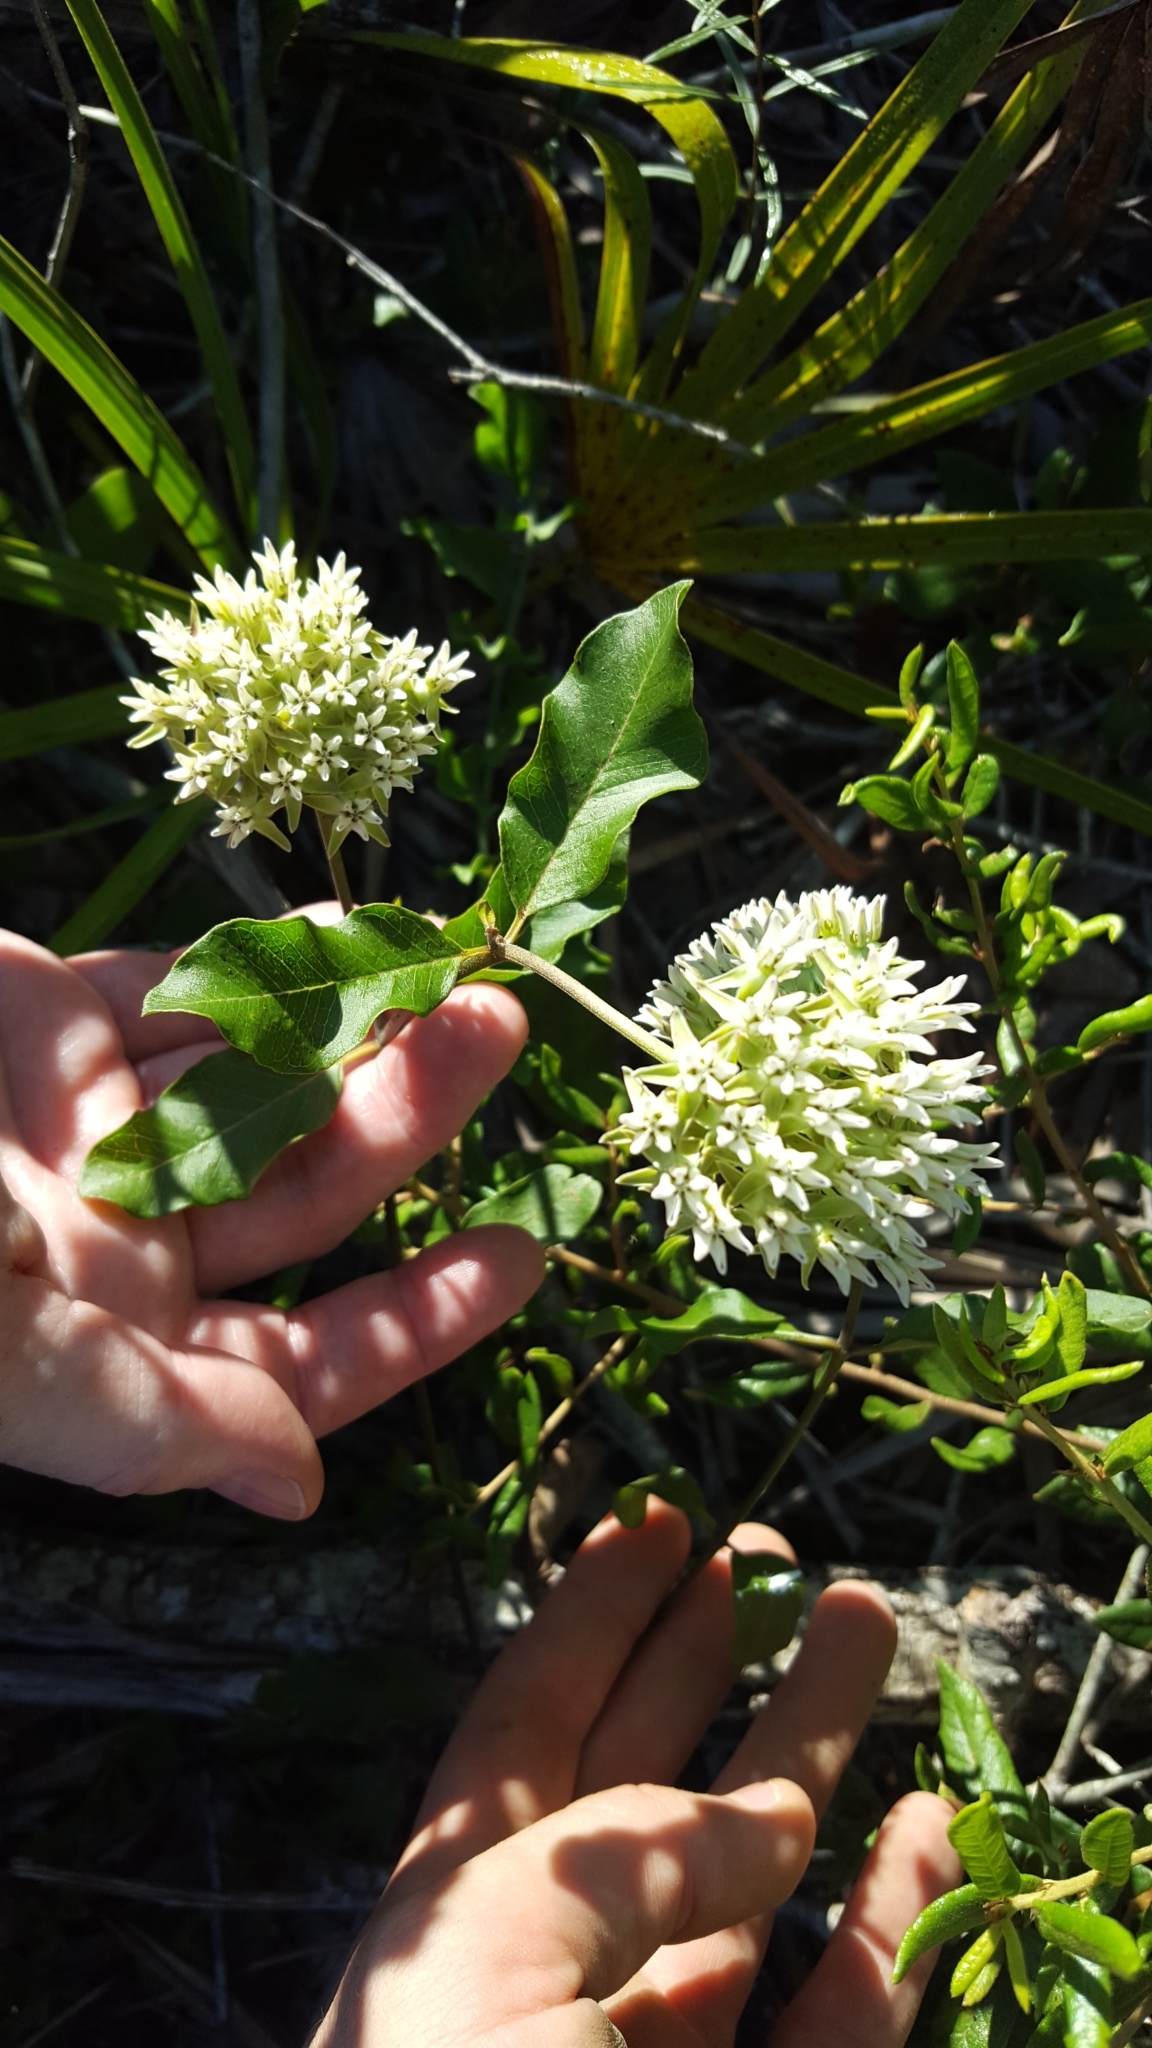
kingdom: Plantae
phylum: Tracheophyta
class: Magnoliopsida
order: Gentianales
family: Apocynaceae
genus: Asclepias
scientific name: Asclepias curtissii
